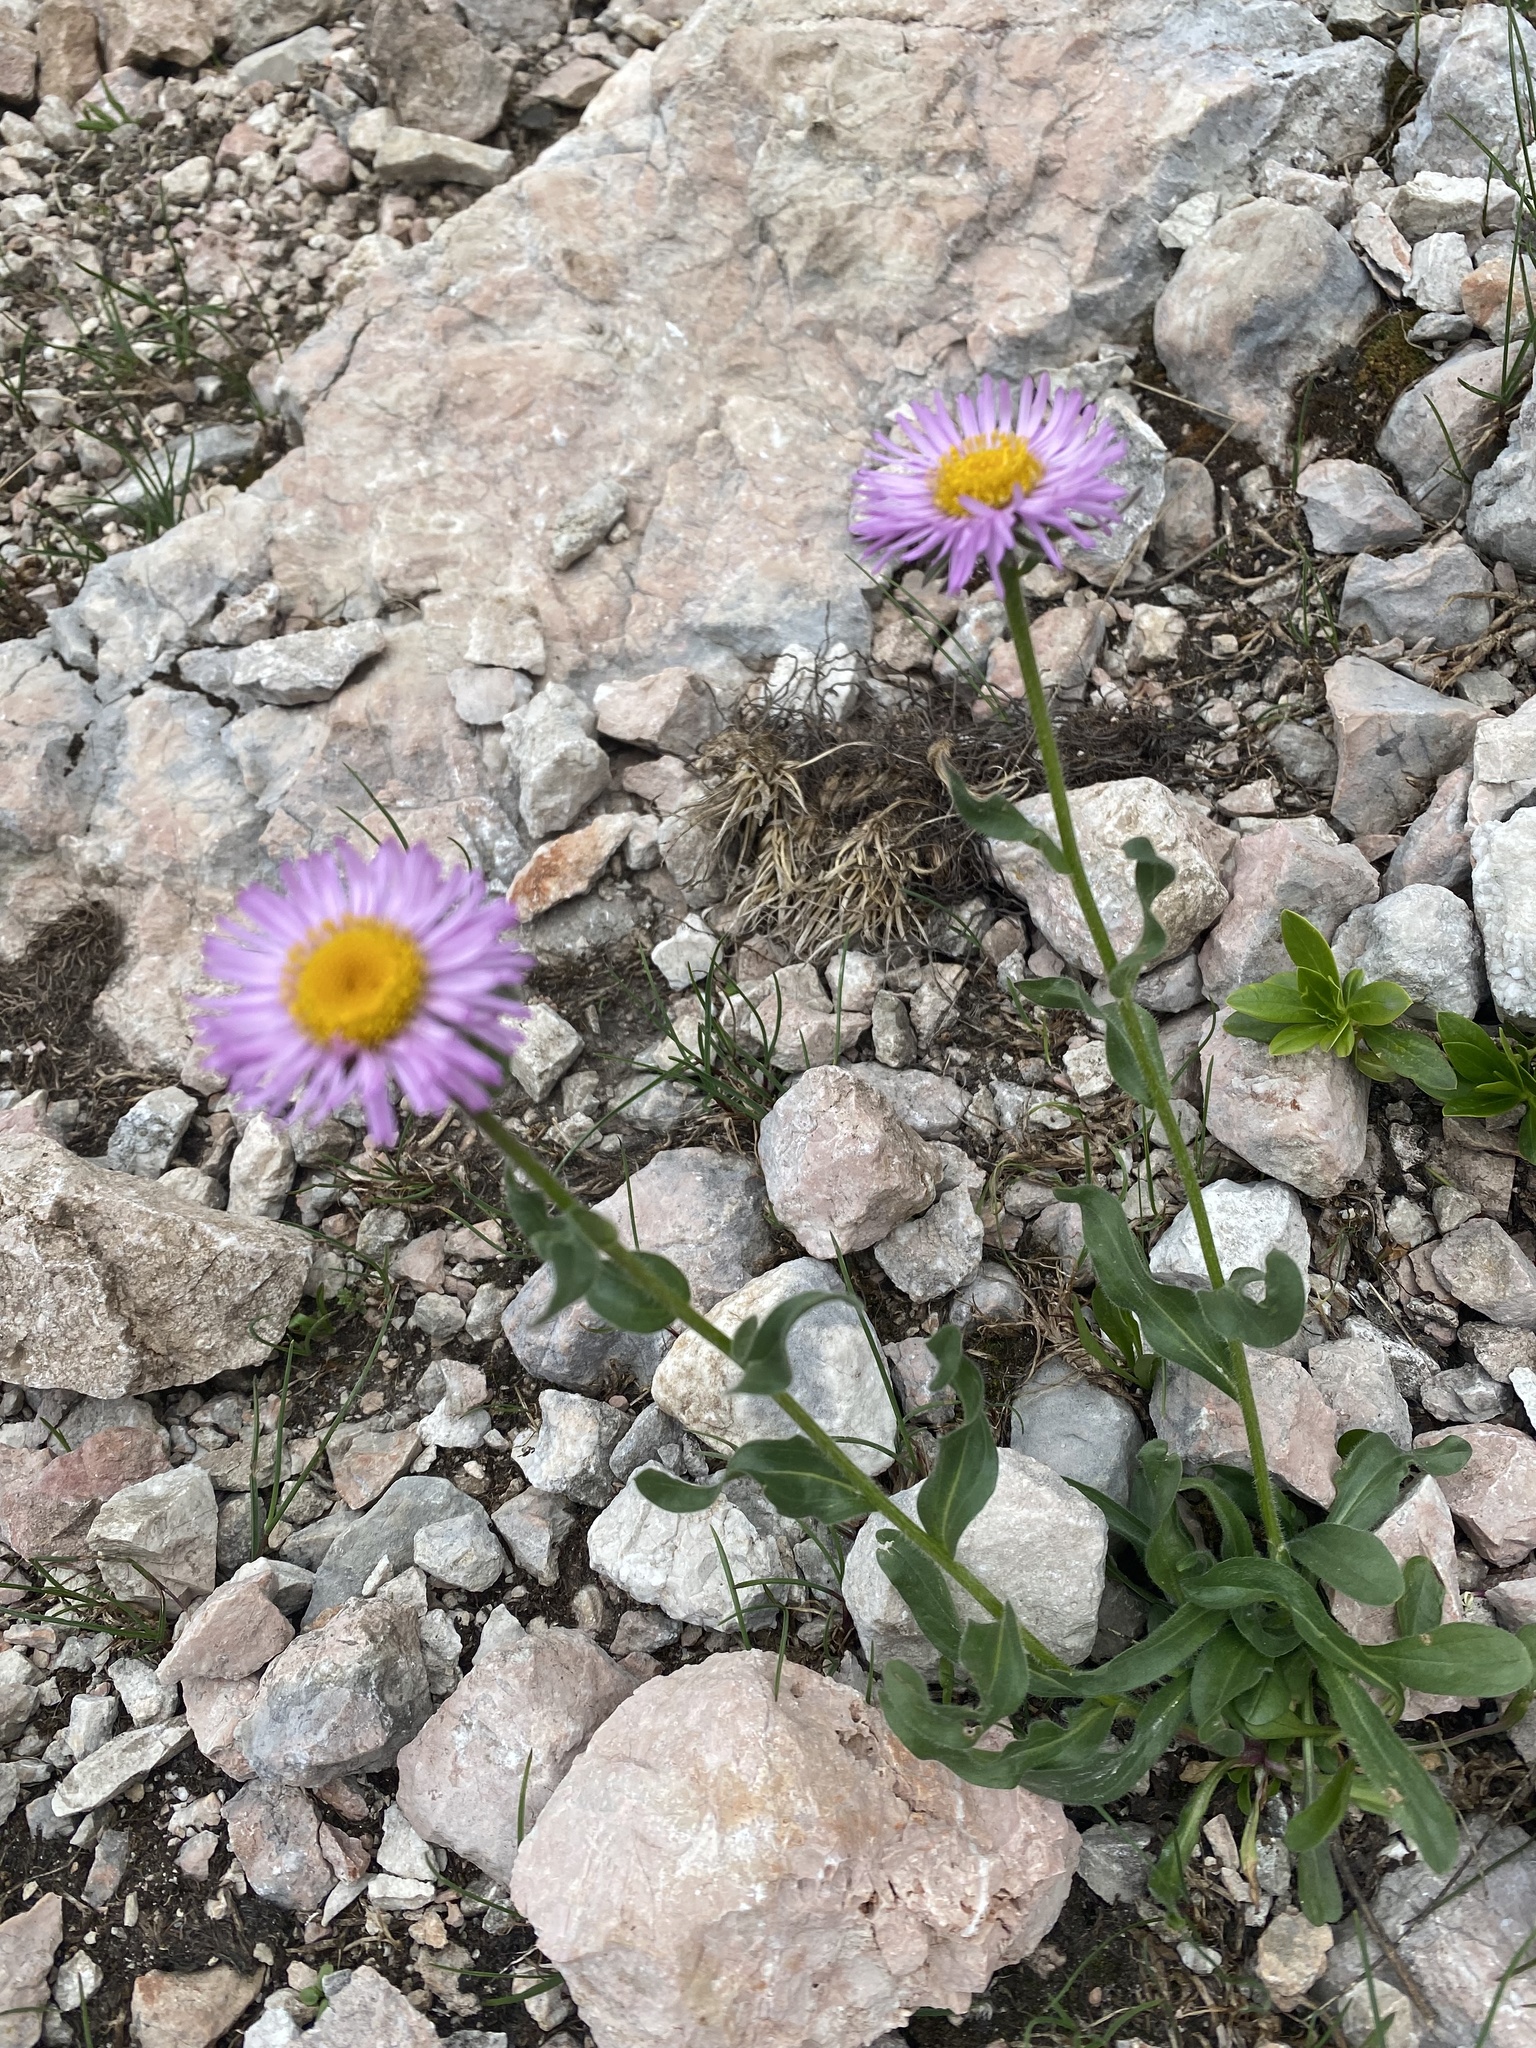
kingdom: Plantae
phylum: Tracheophyta
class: Magnoliopsida
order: Asterales
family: Asteraceae
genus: Erigeron
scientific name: Erigeron caucasicus
